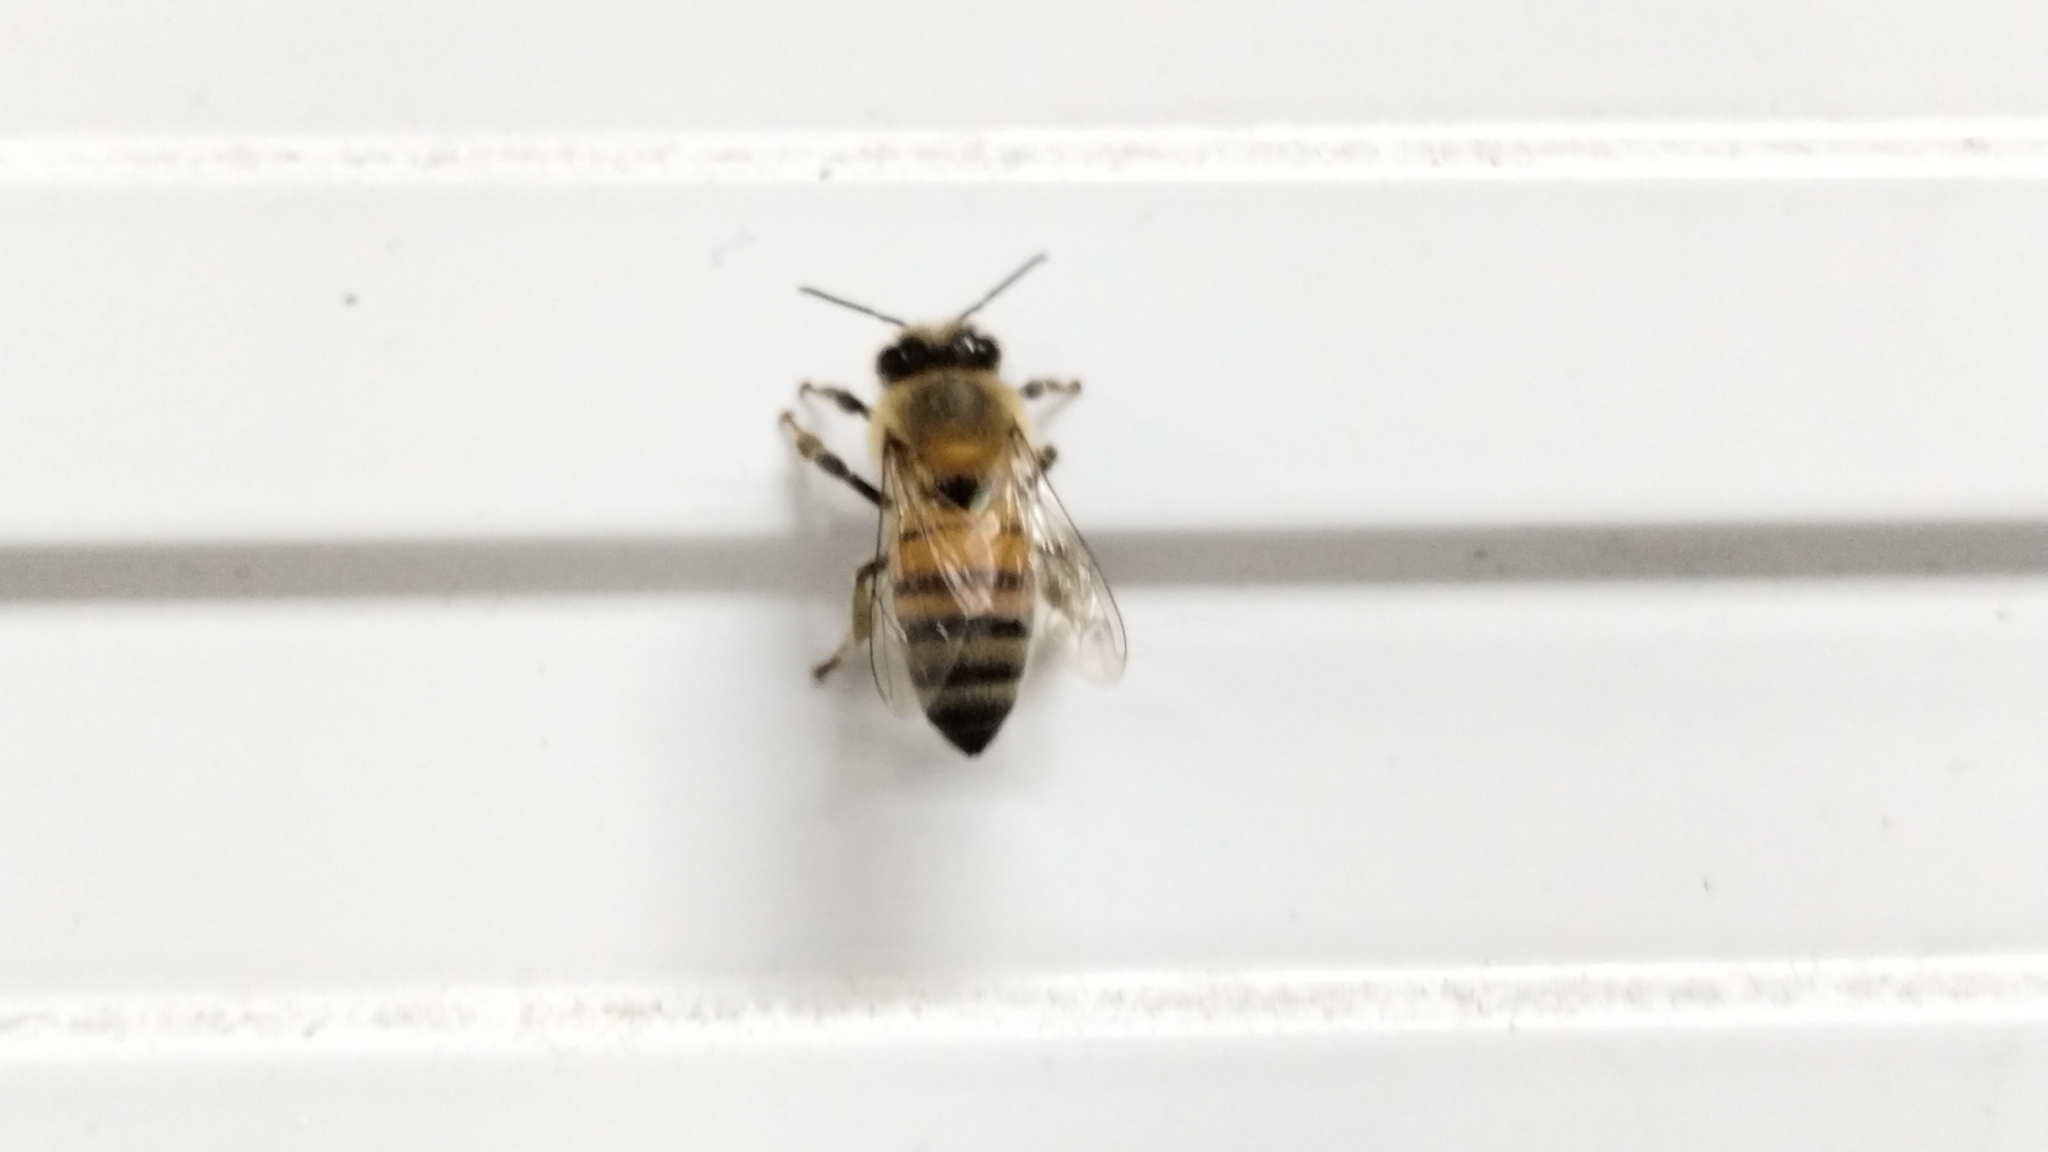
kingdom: Animalia
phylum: Arthropoda
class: Insecta
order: Hymenoptera
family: Apidae
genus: Apis
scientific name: Apis mellifera
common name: Honey bee
